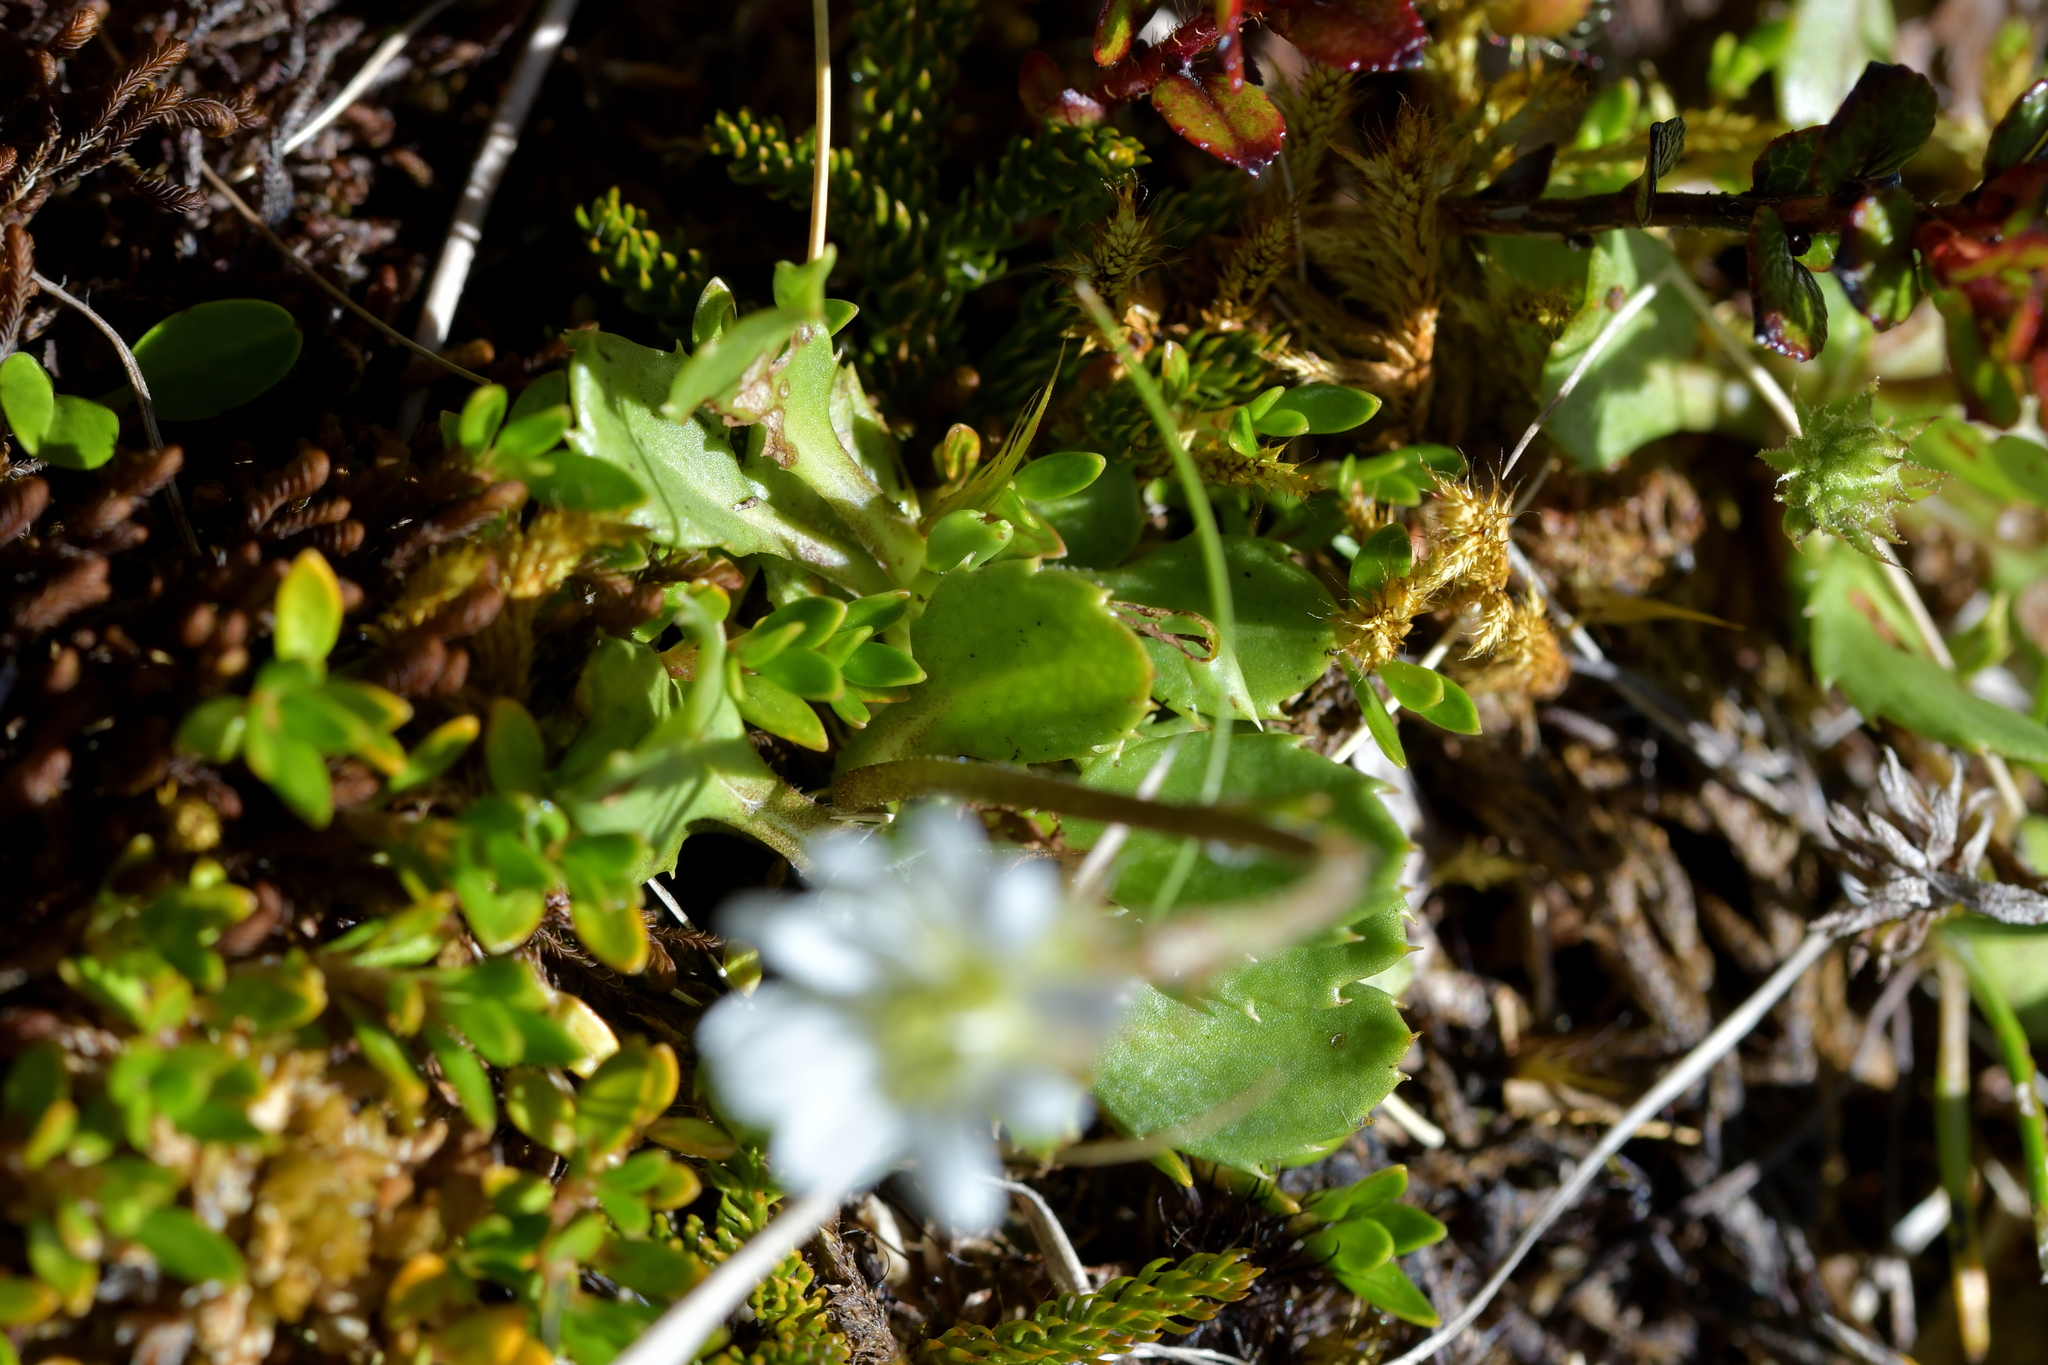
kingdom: Plantae
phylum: Tracheophyta
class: Magnoliopsida
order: Asterales
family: Asteraceae
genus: Celmisia
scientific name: Celmisia glandulosa
